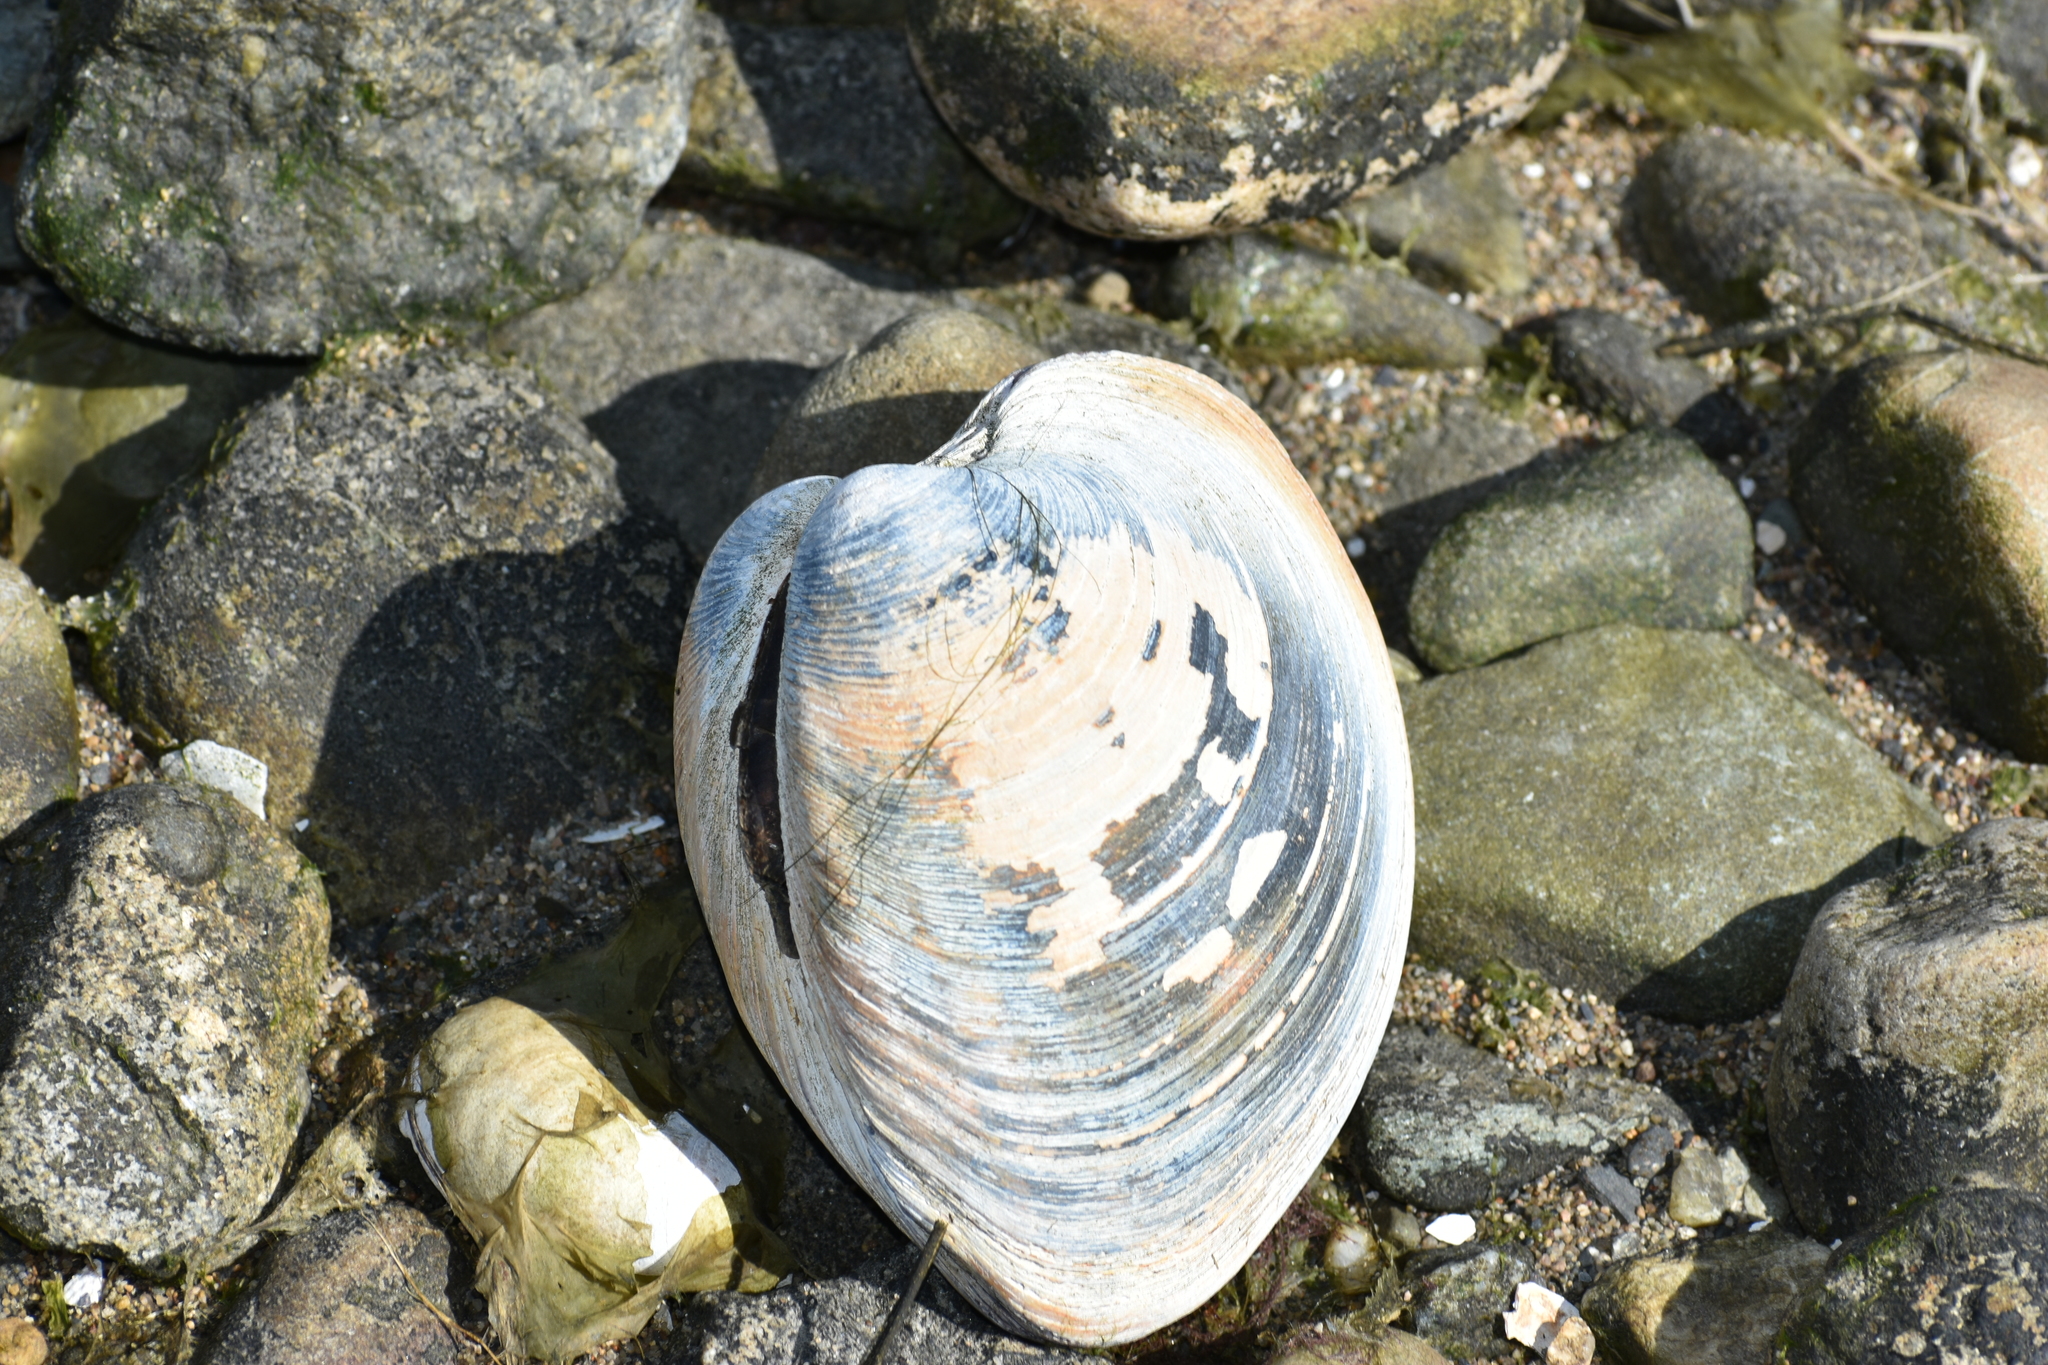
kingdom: Animalia
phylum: Mollusca
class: Bivalvia
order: Venerida
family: Veneridae
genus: Mercenaria
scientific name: Mercenaria mercenaria
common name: American hard-shelled clam
